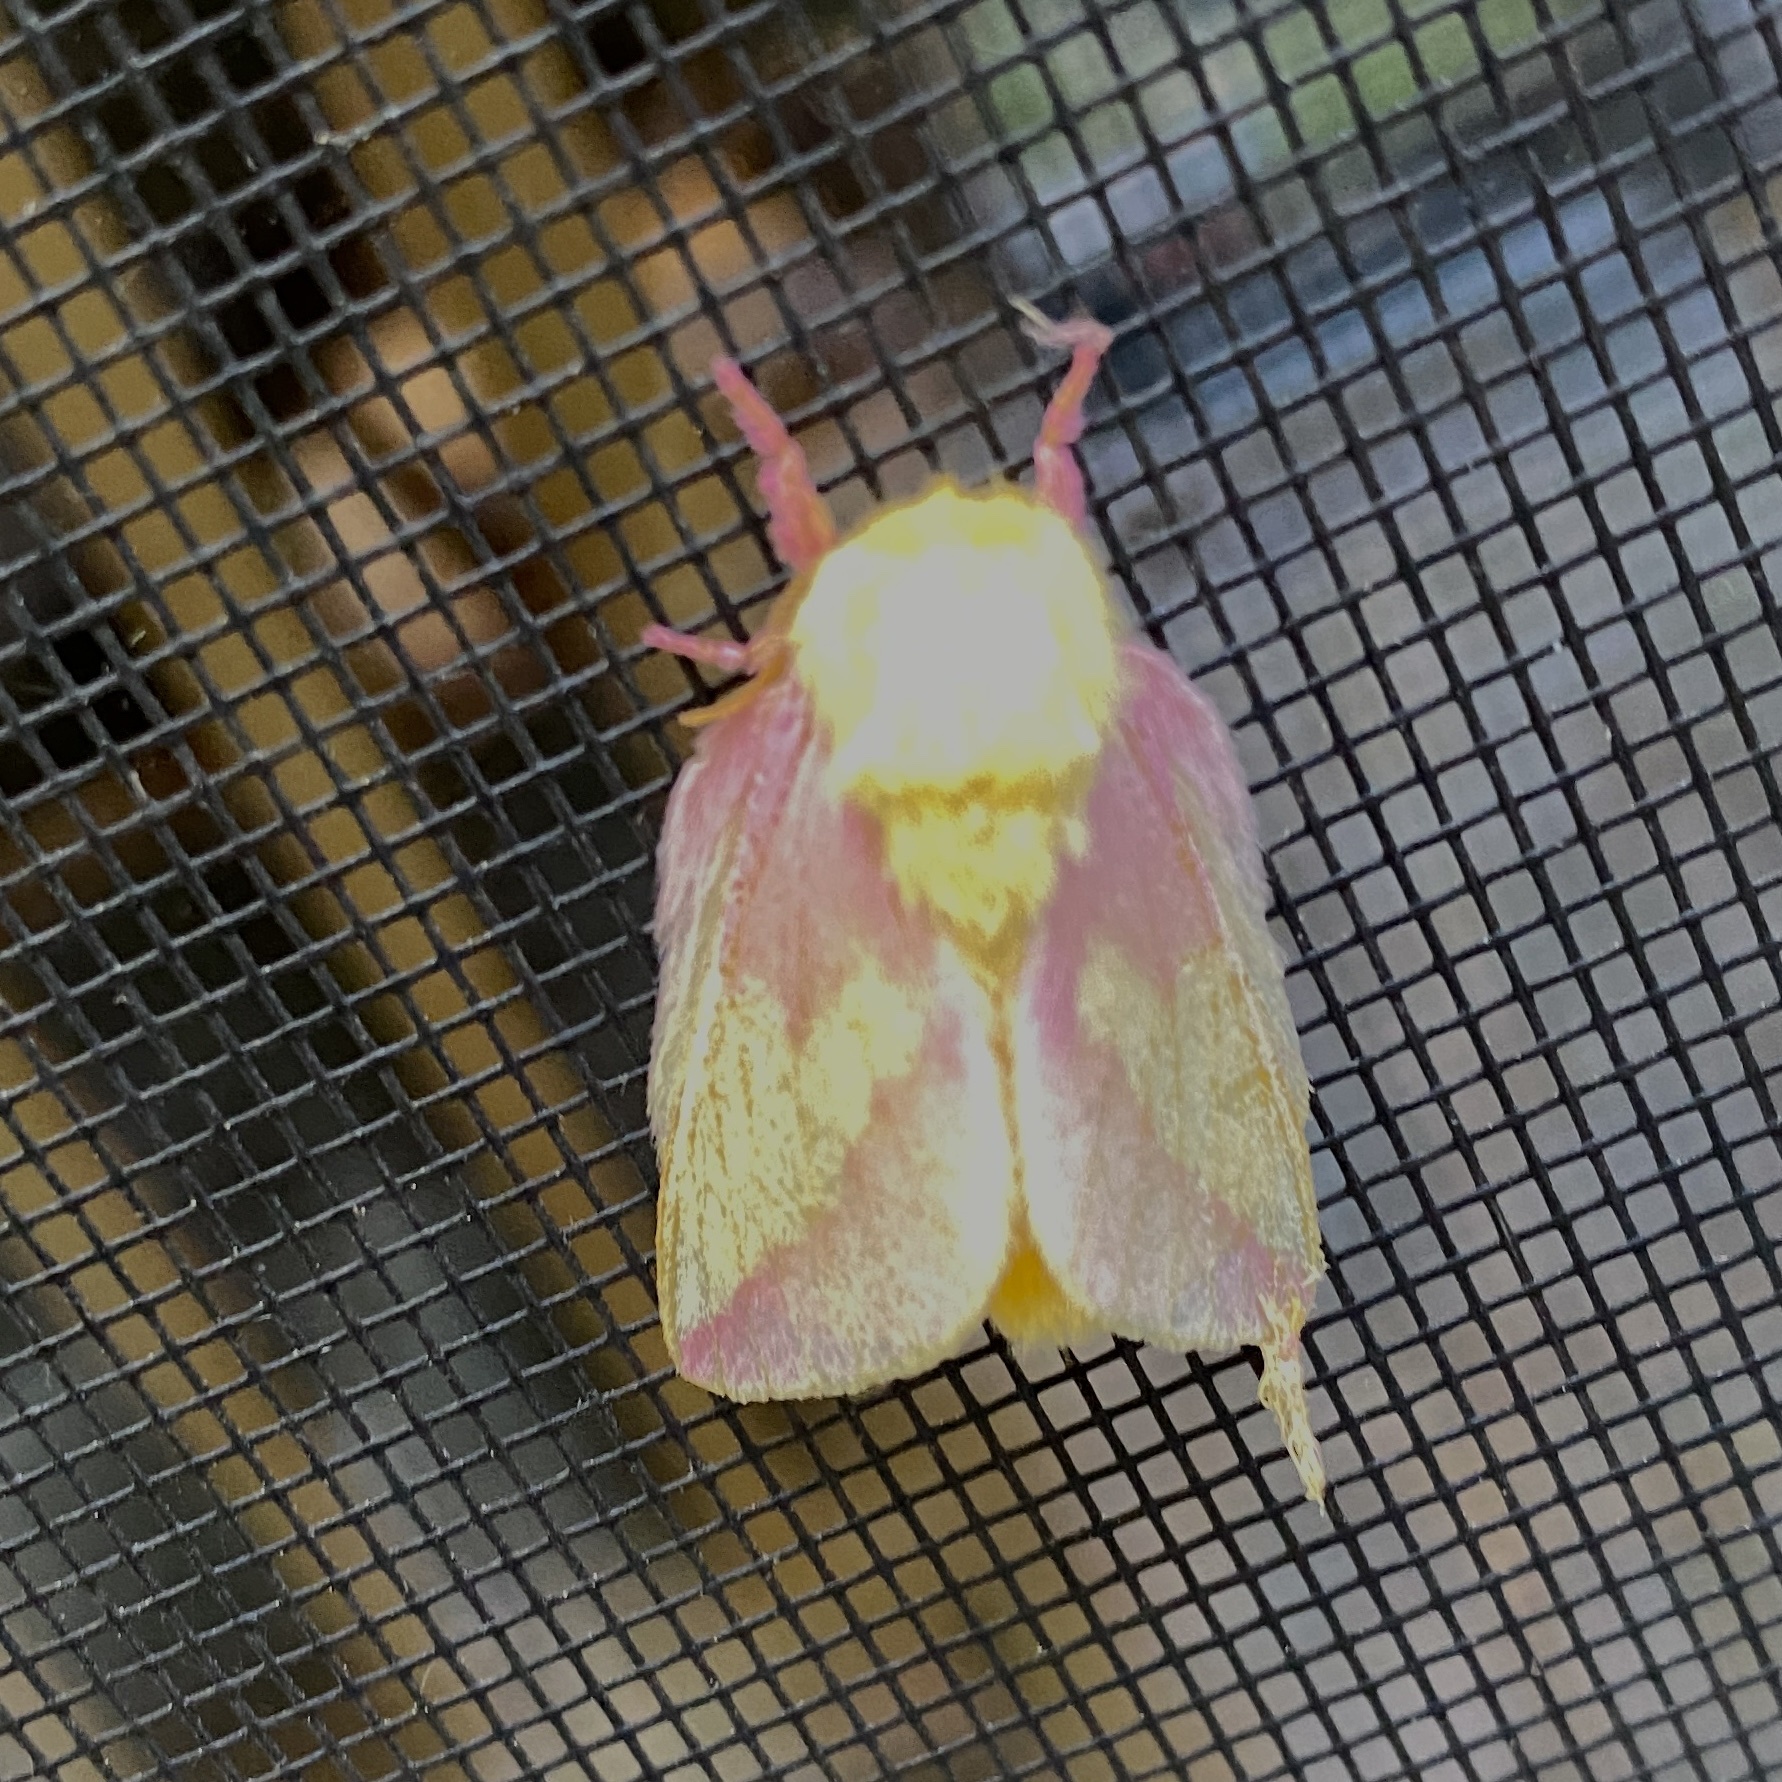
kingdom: Animalia
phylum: Arthropoda
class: Insecta
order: Lepidoptera
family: Saturniidae
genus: Dryocampa
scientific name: Dryocampa rubicunda
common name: Rosy maple moth
